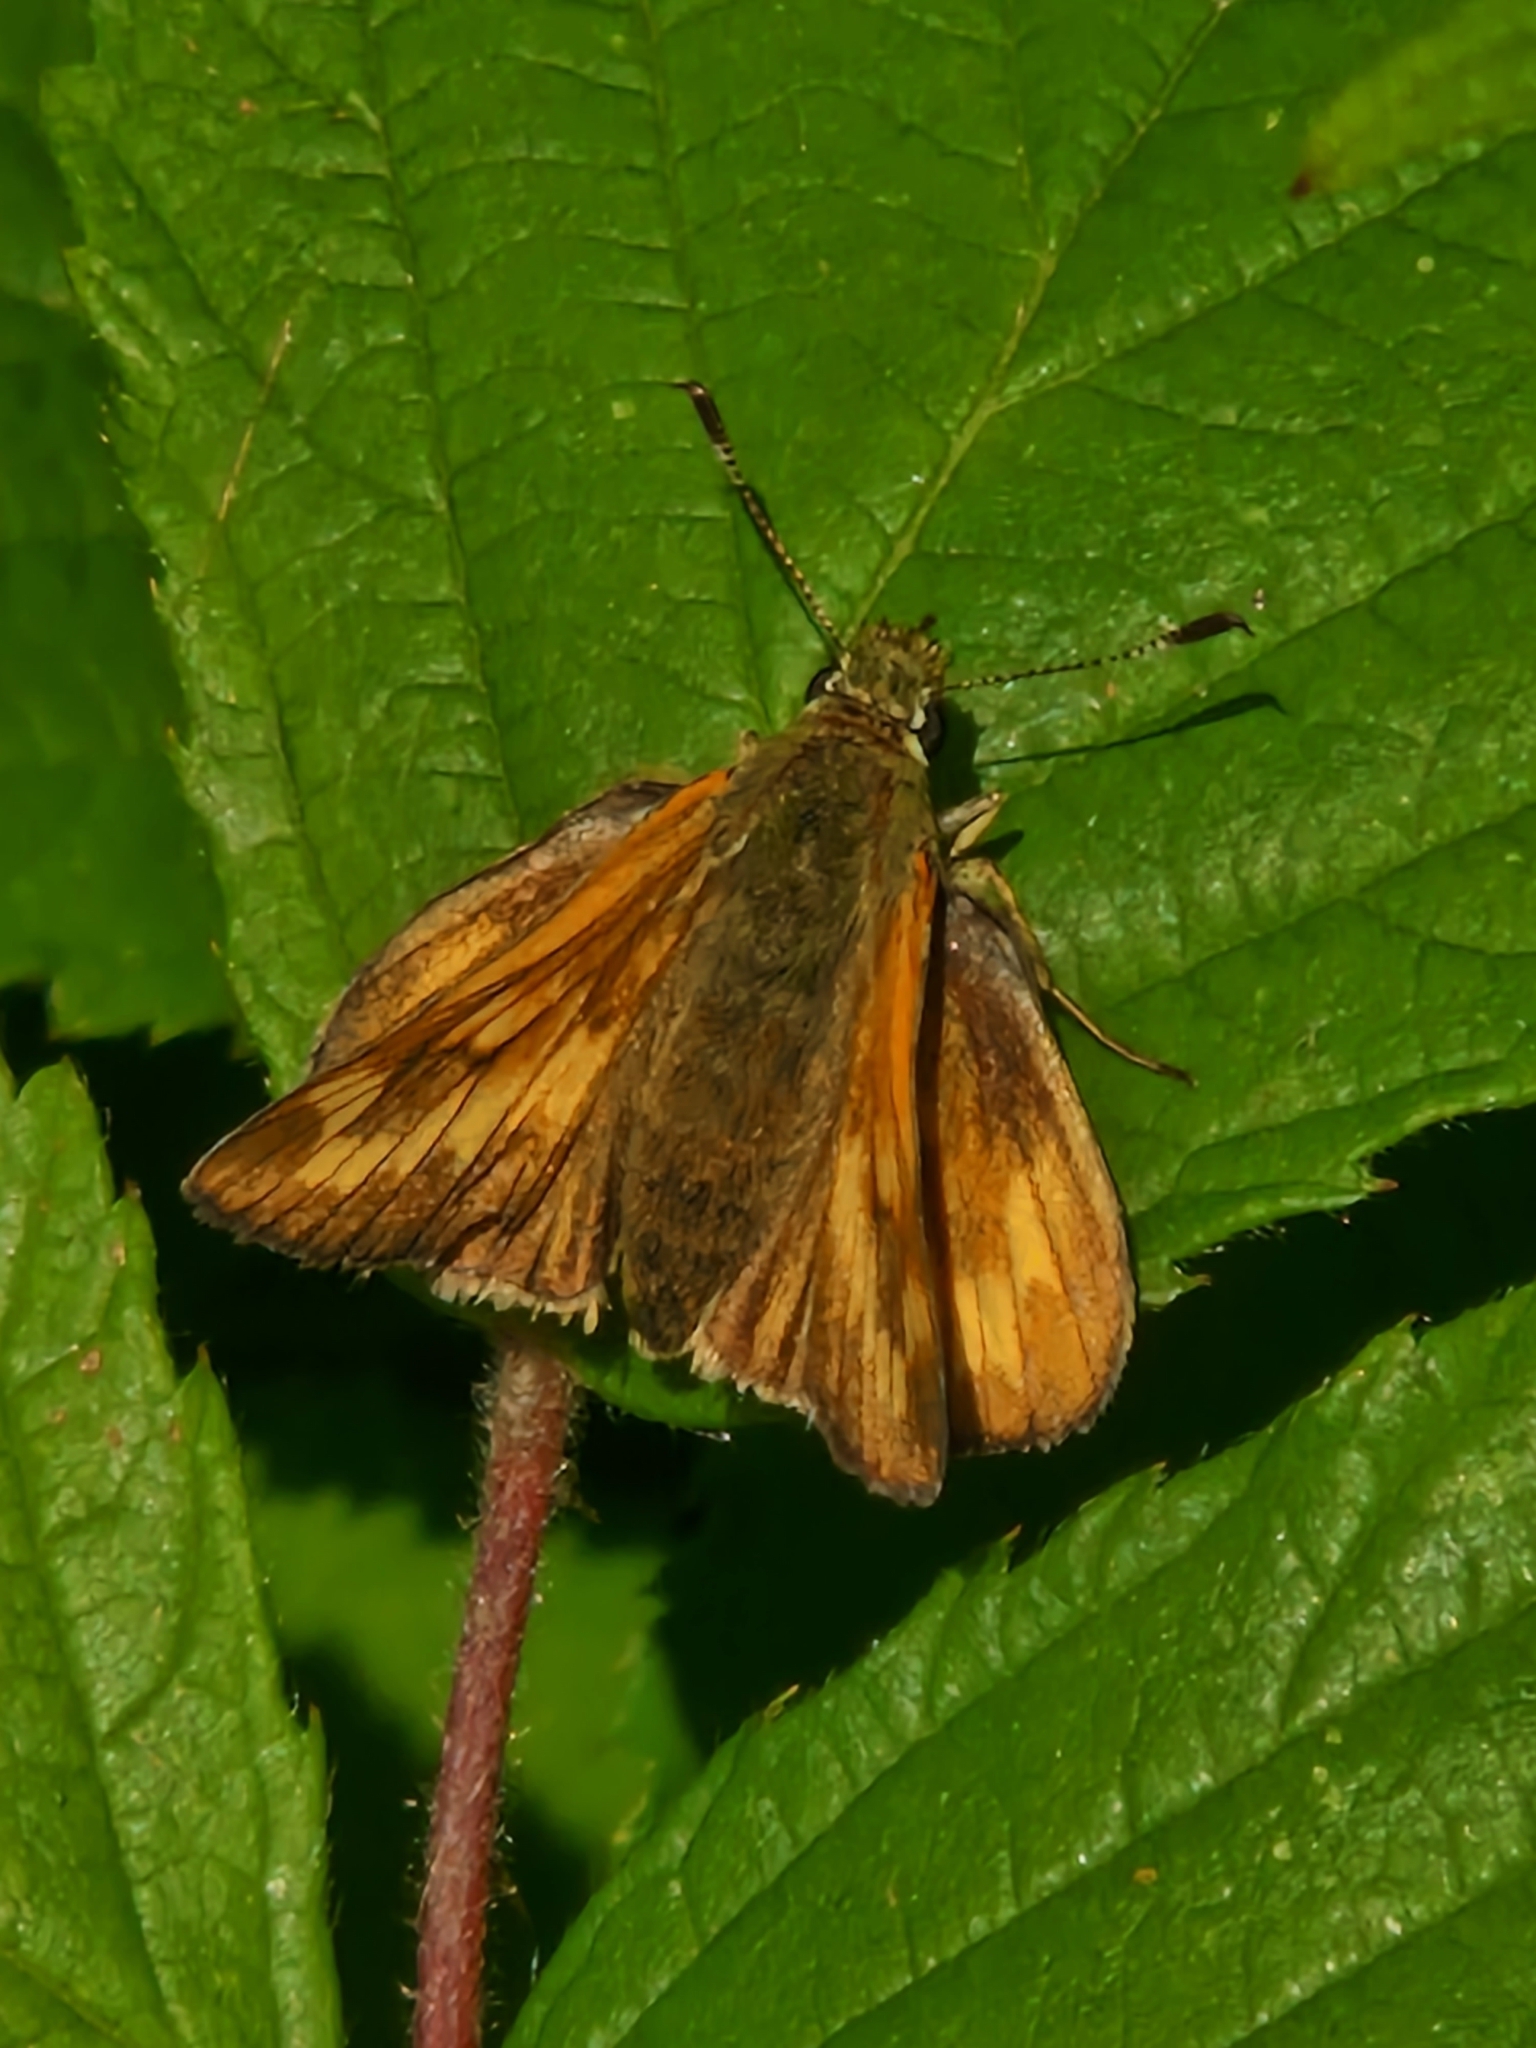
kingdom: Animalia
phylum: Arthropoda
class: Insecta
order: Lepidoptera
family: Hesperiidae
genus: Ochlodes
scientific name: Ochlodes venata
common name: Large skipper
